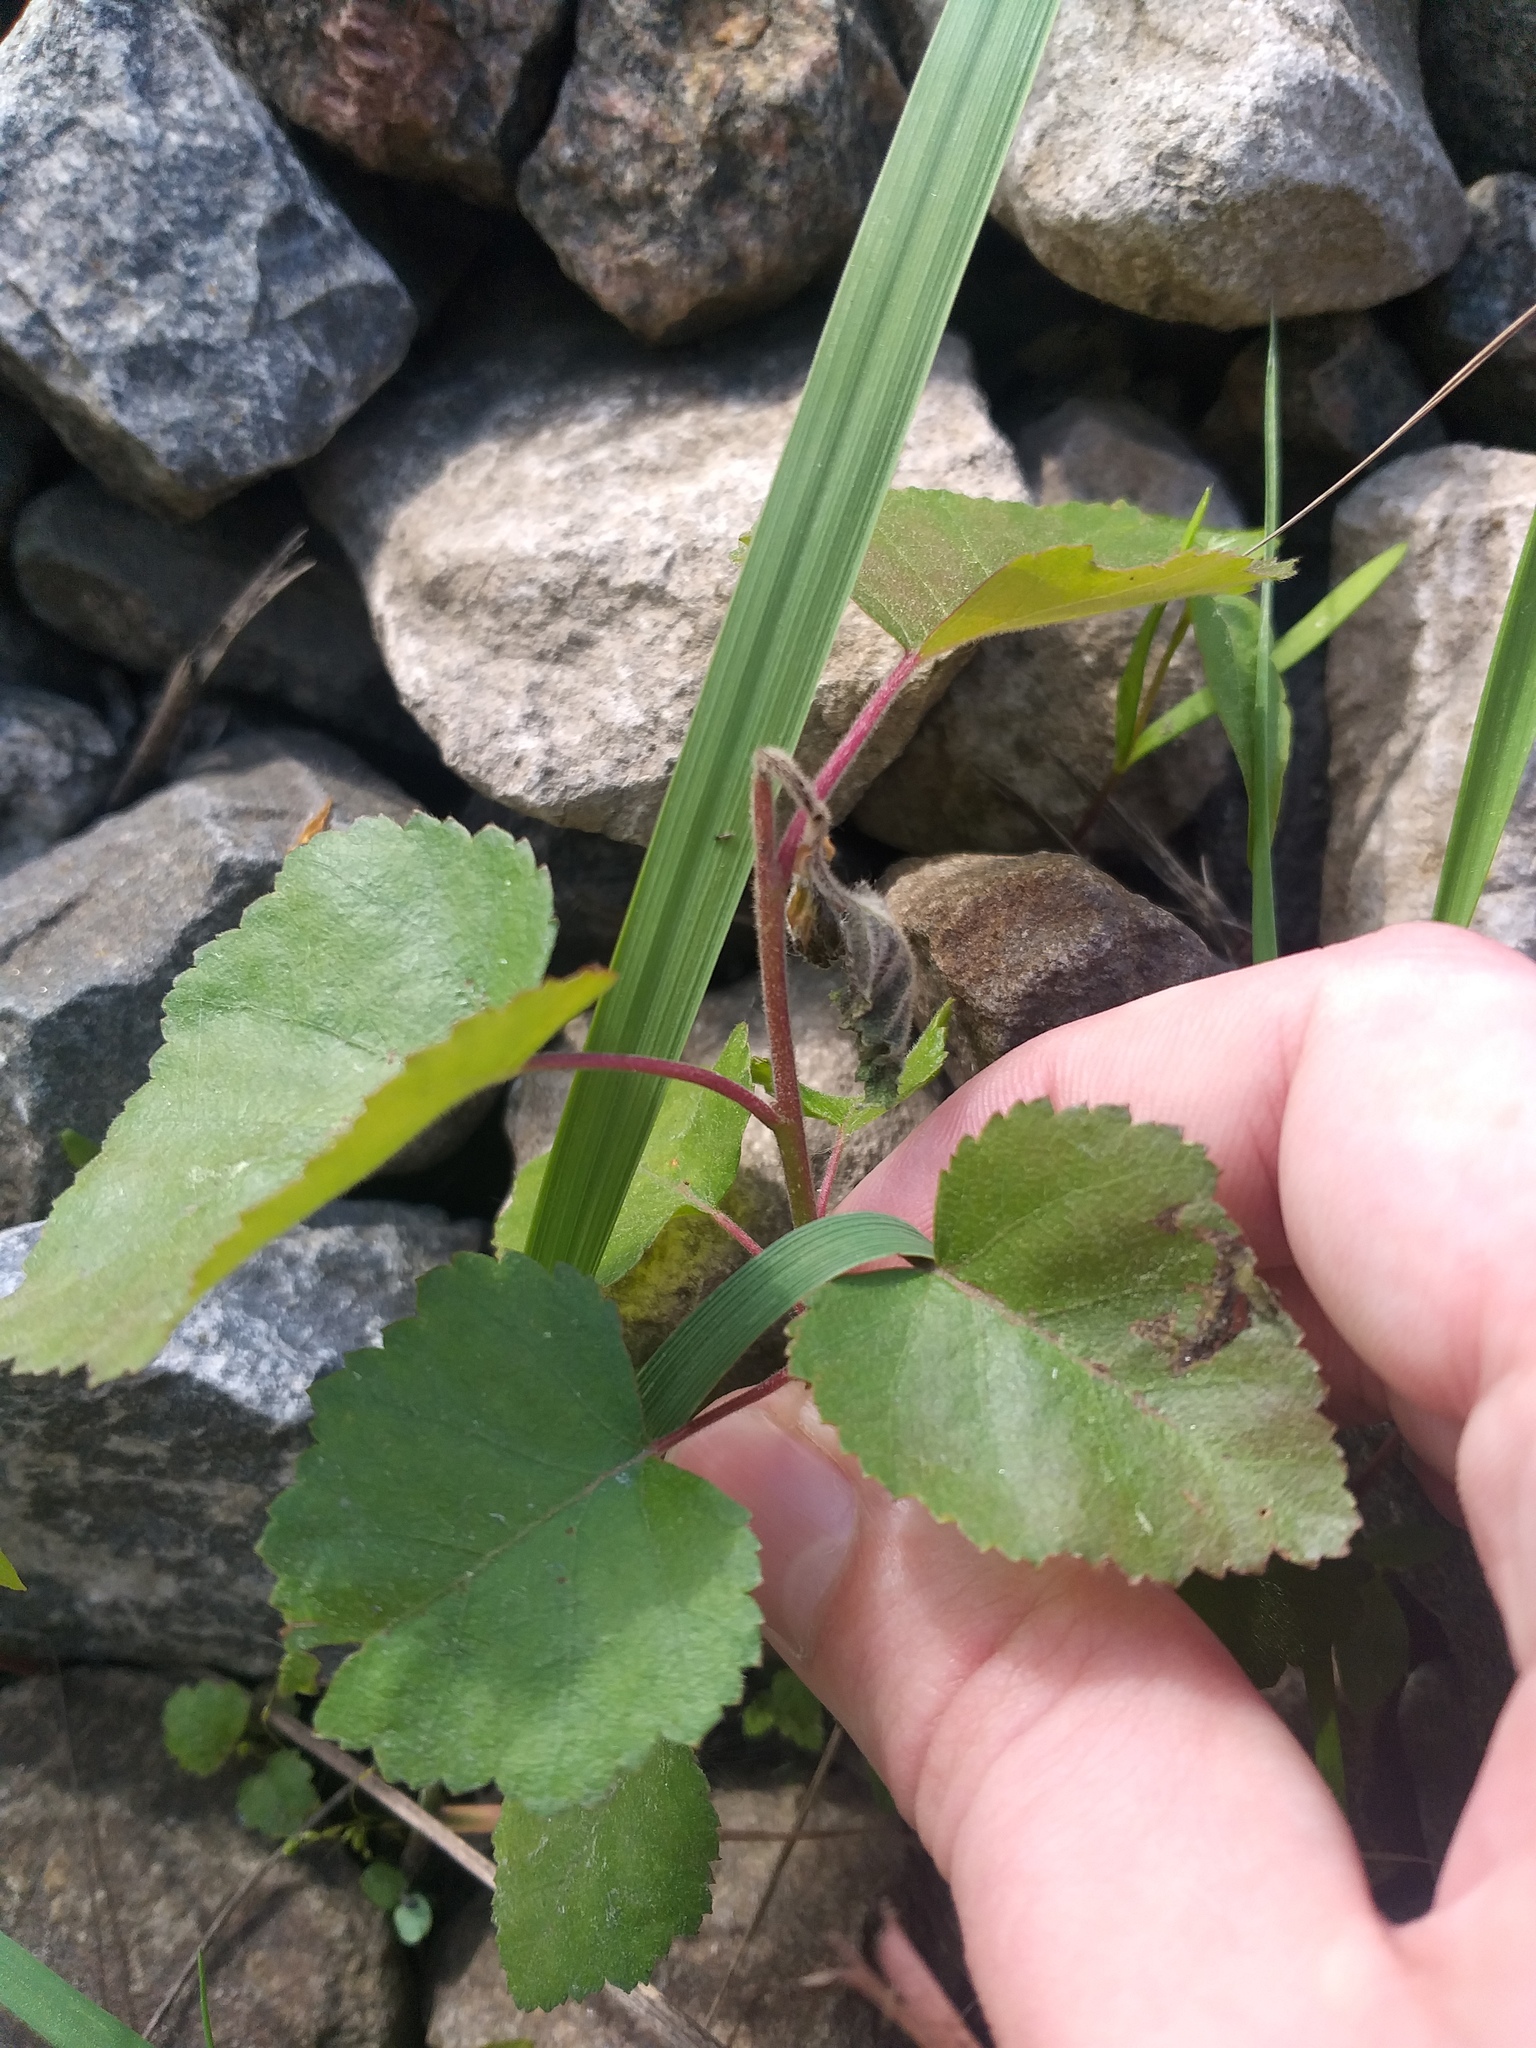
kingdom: Plantae
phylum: Tracheophyta
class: Magnoliopsida
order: Fagales
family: Betulaceae
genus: Betula
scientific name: Betula pubescens
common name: Downy birch
